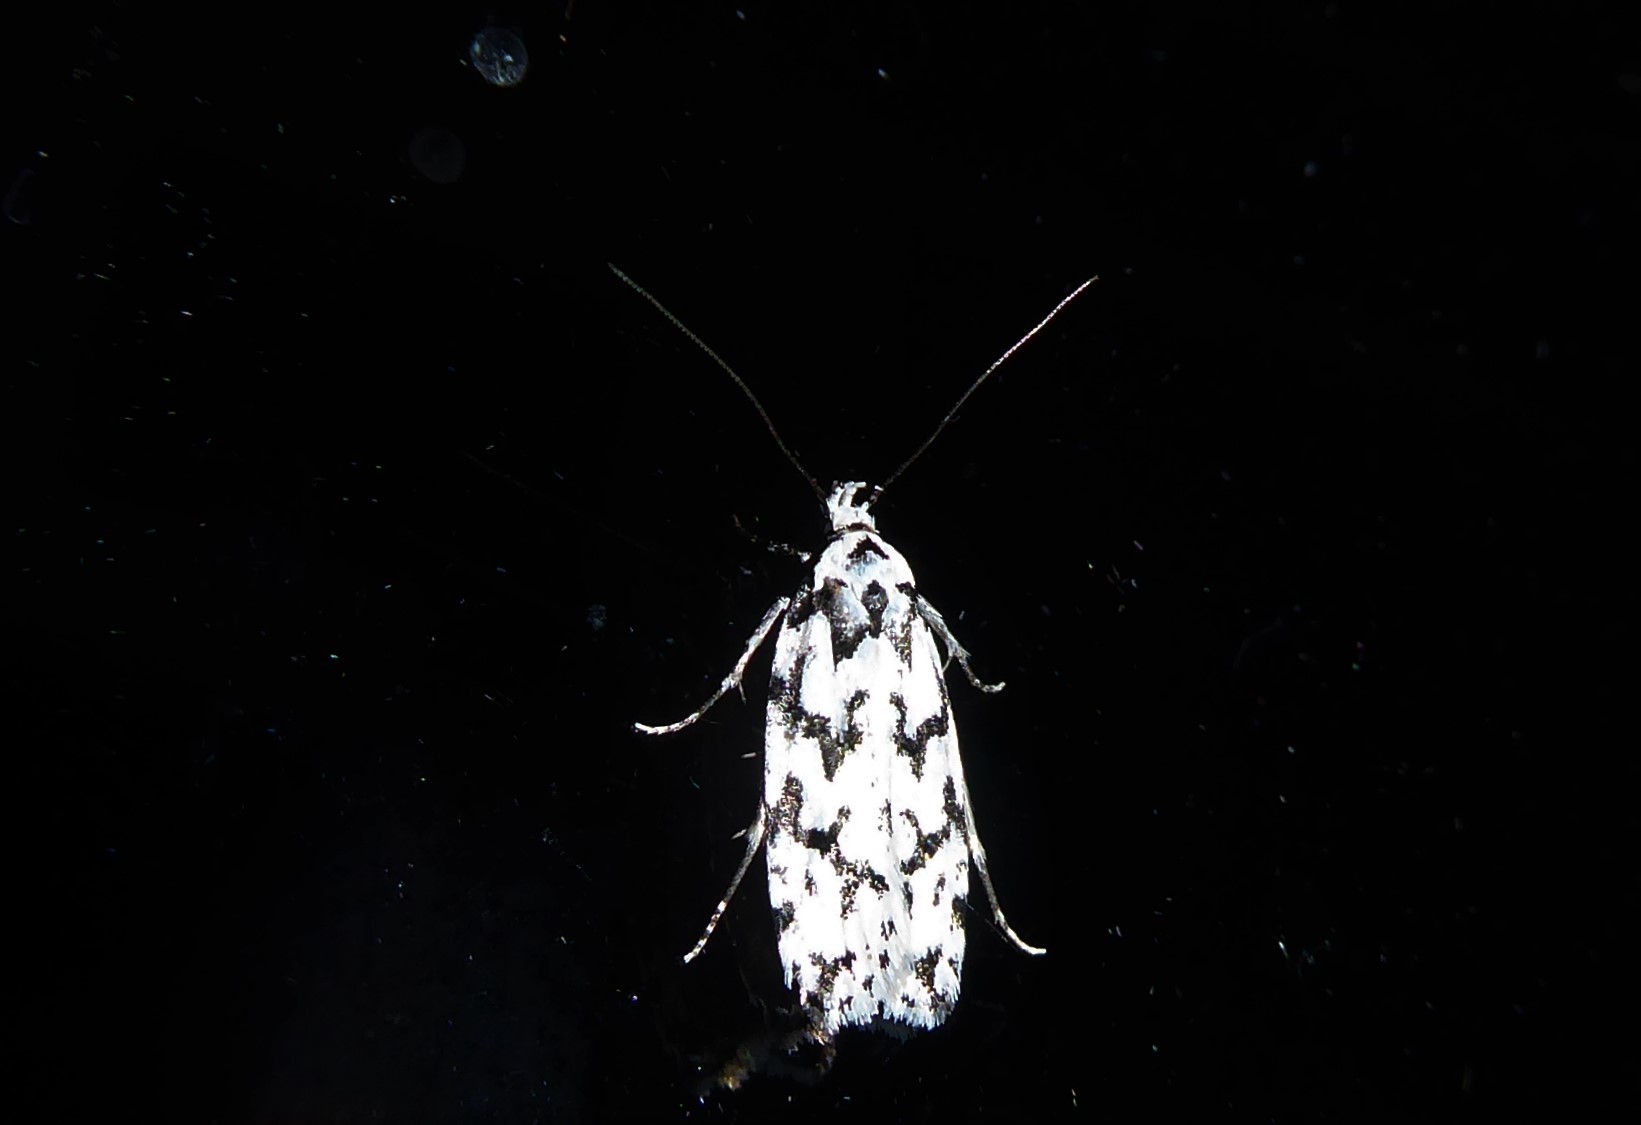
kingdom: Animalia
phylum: Arthropoda
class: Insecta
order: Lepidoptera
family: Oecophoridae
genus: Izatha
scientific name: Izatha katadiktya
